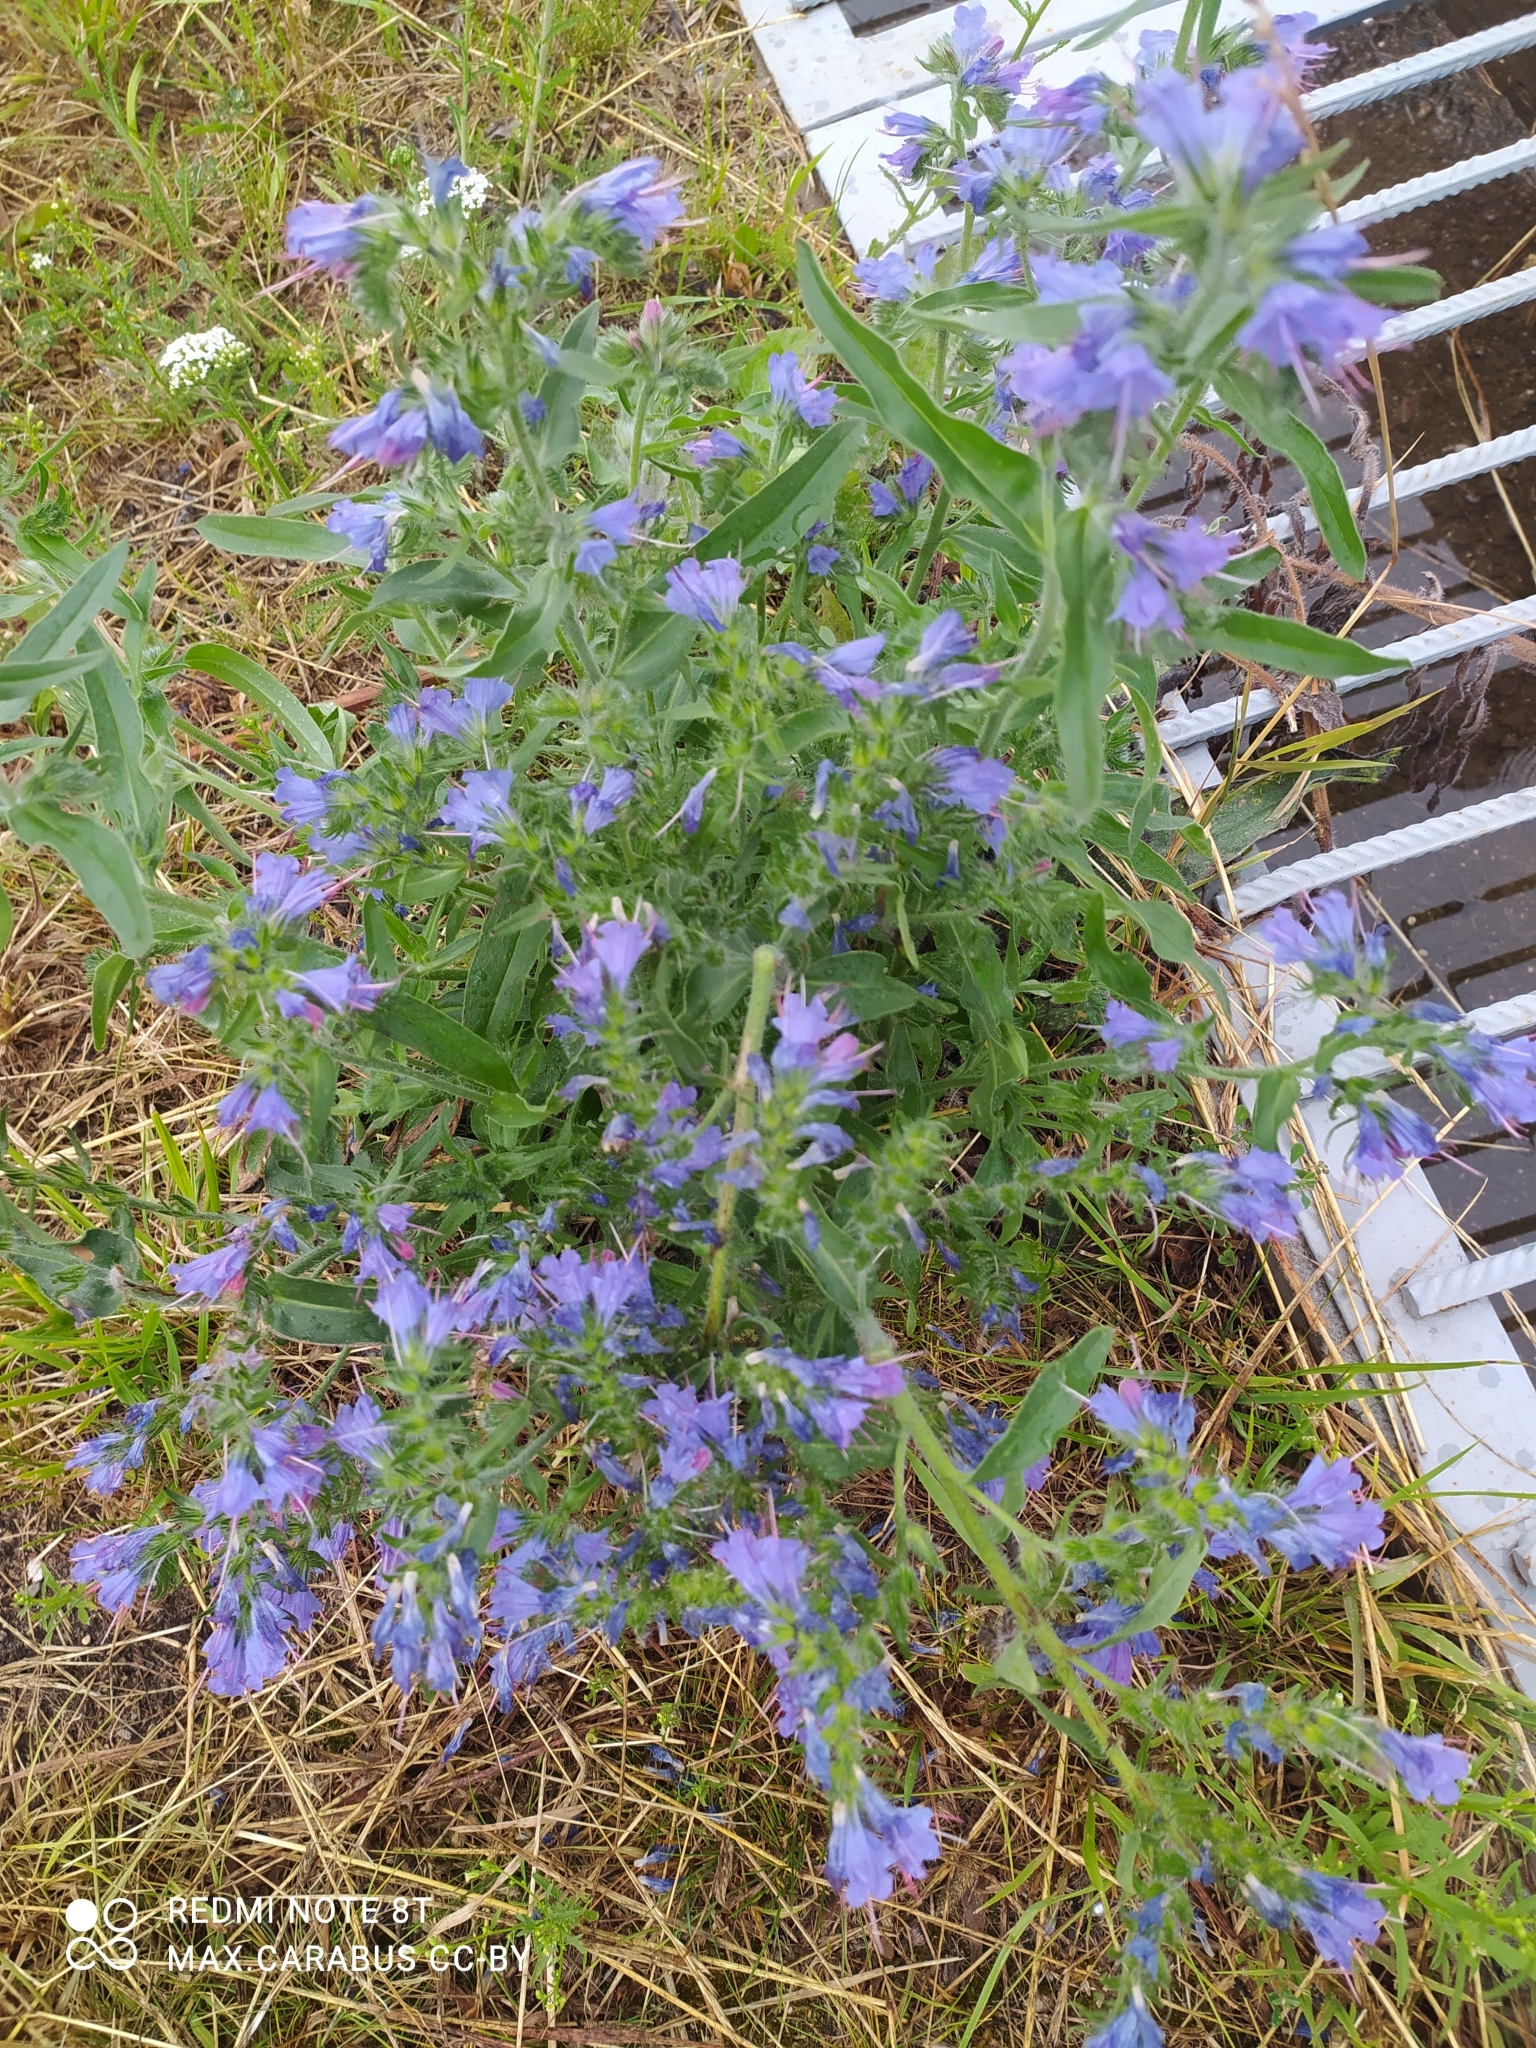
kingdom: Plantae
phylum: Tracheophyta
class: Magnoliopsida
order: Boraginales
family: Boraginaceae
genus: Echium
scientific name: Echium vulgare
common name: Common viper's bugloss
